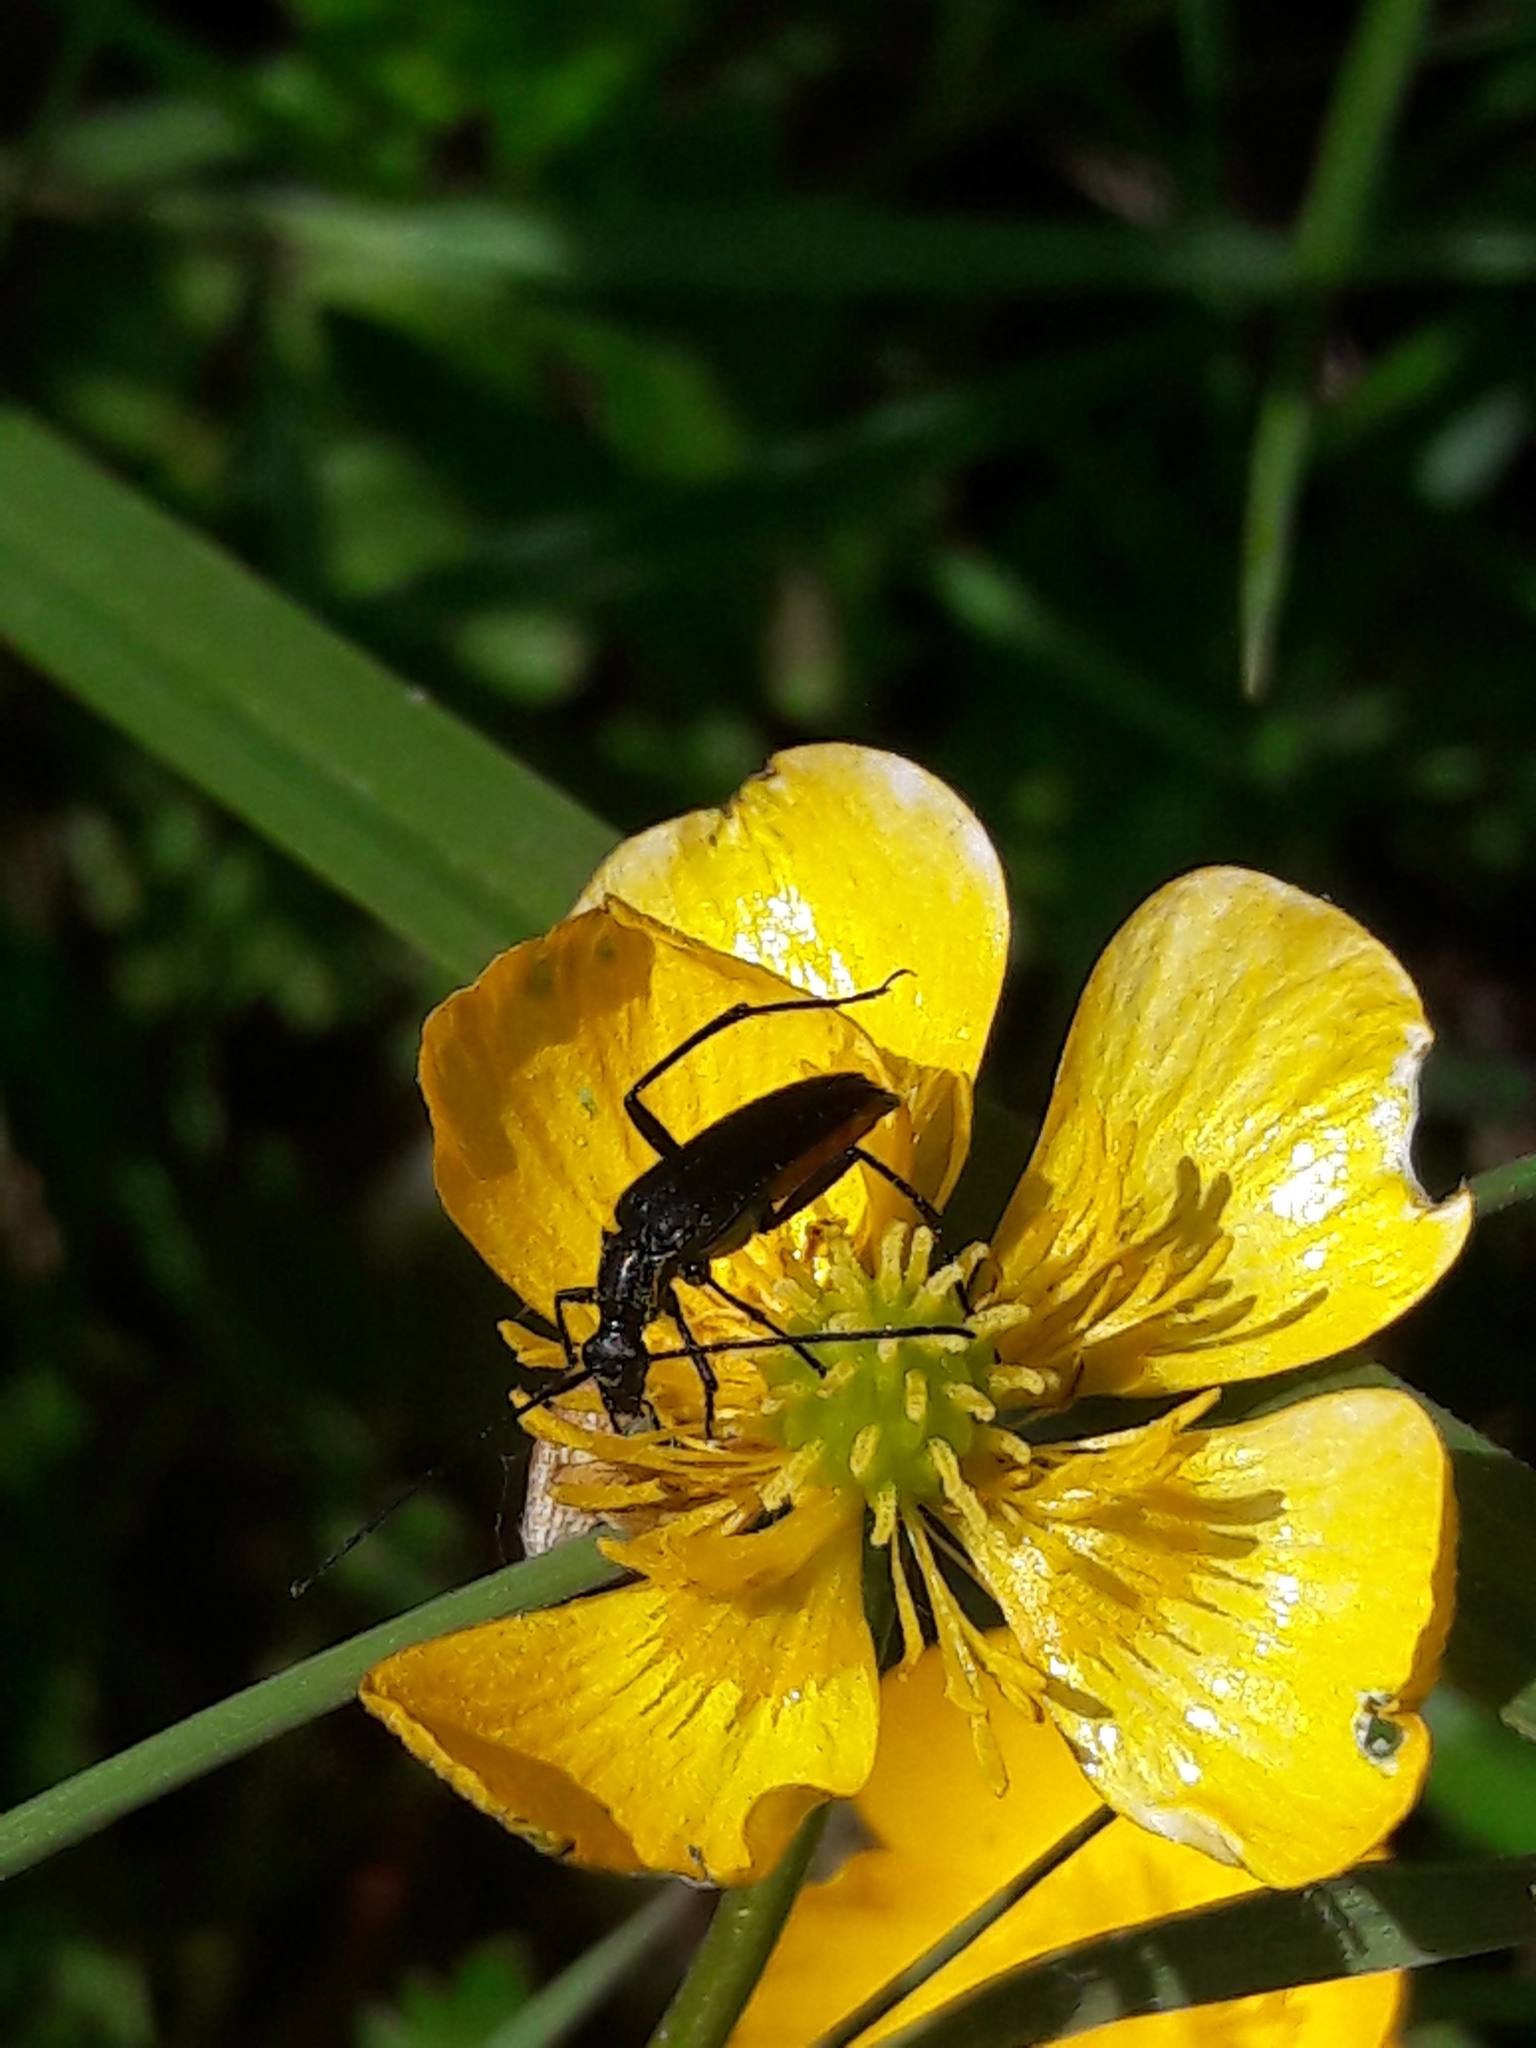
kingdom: Animalia
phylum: Arthropoda
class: Insecta
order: Coleoptera
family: Cerambycidae
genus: Stenurella
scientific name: Stenurella nigra
